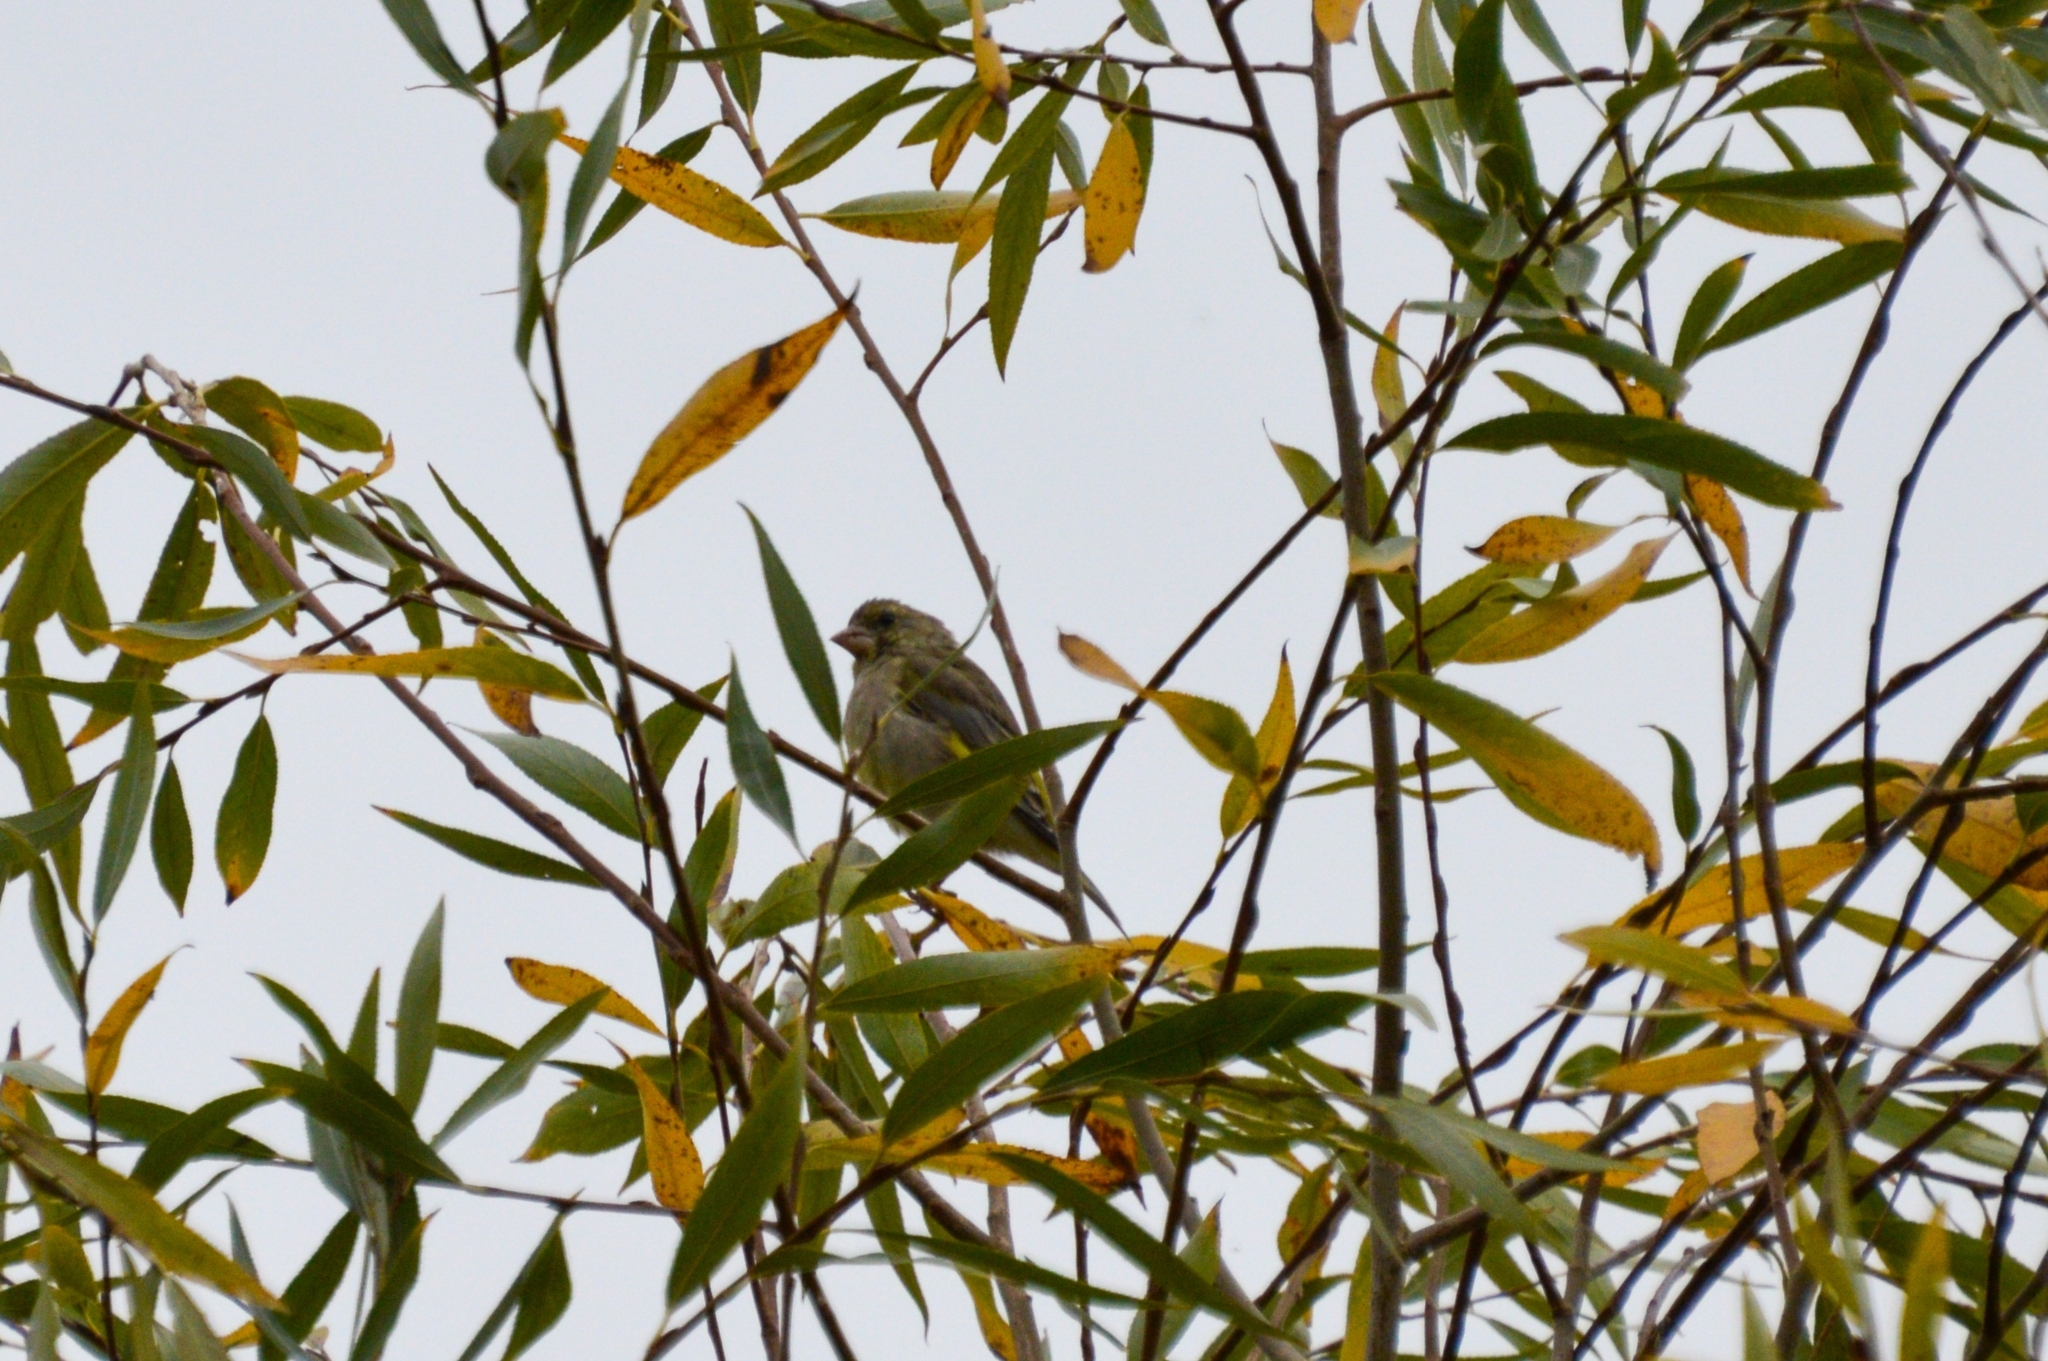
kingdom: Plantae
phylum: Tracheophyta
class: Liliopsida
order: Poales
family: Poaceae
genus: Chloris
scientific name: Chloris chloris
